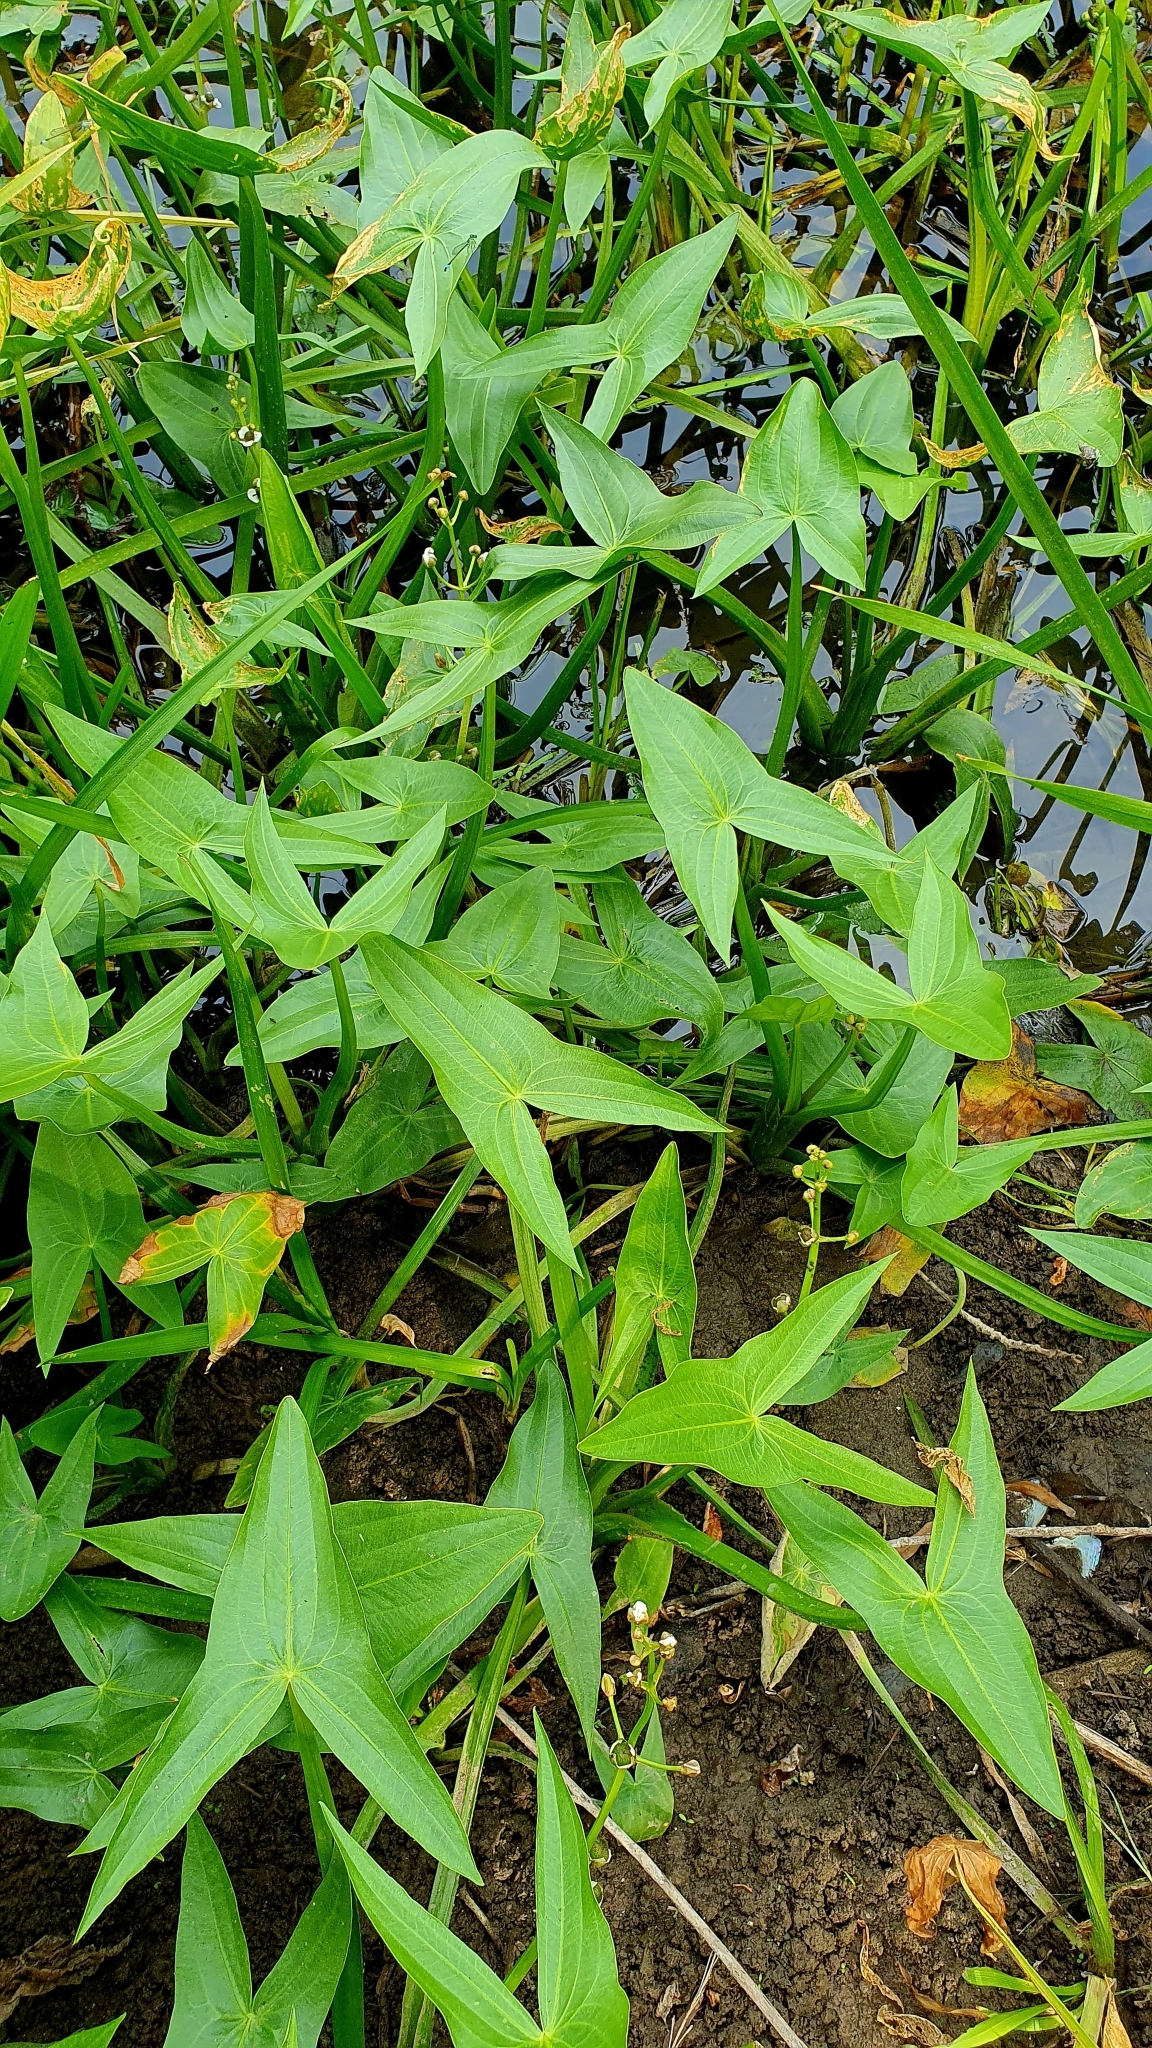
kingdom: Plantae
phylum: Tracheophyta
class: Liliopsida
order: Alismatales
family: Alismataceae
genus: Sagittaria
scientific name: Sagittaria sagittifolia
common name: Arrowhead
